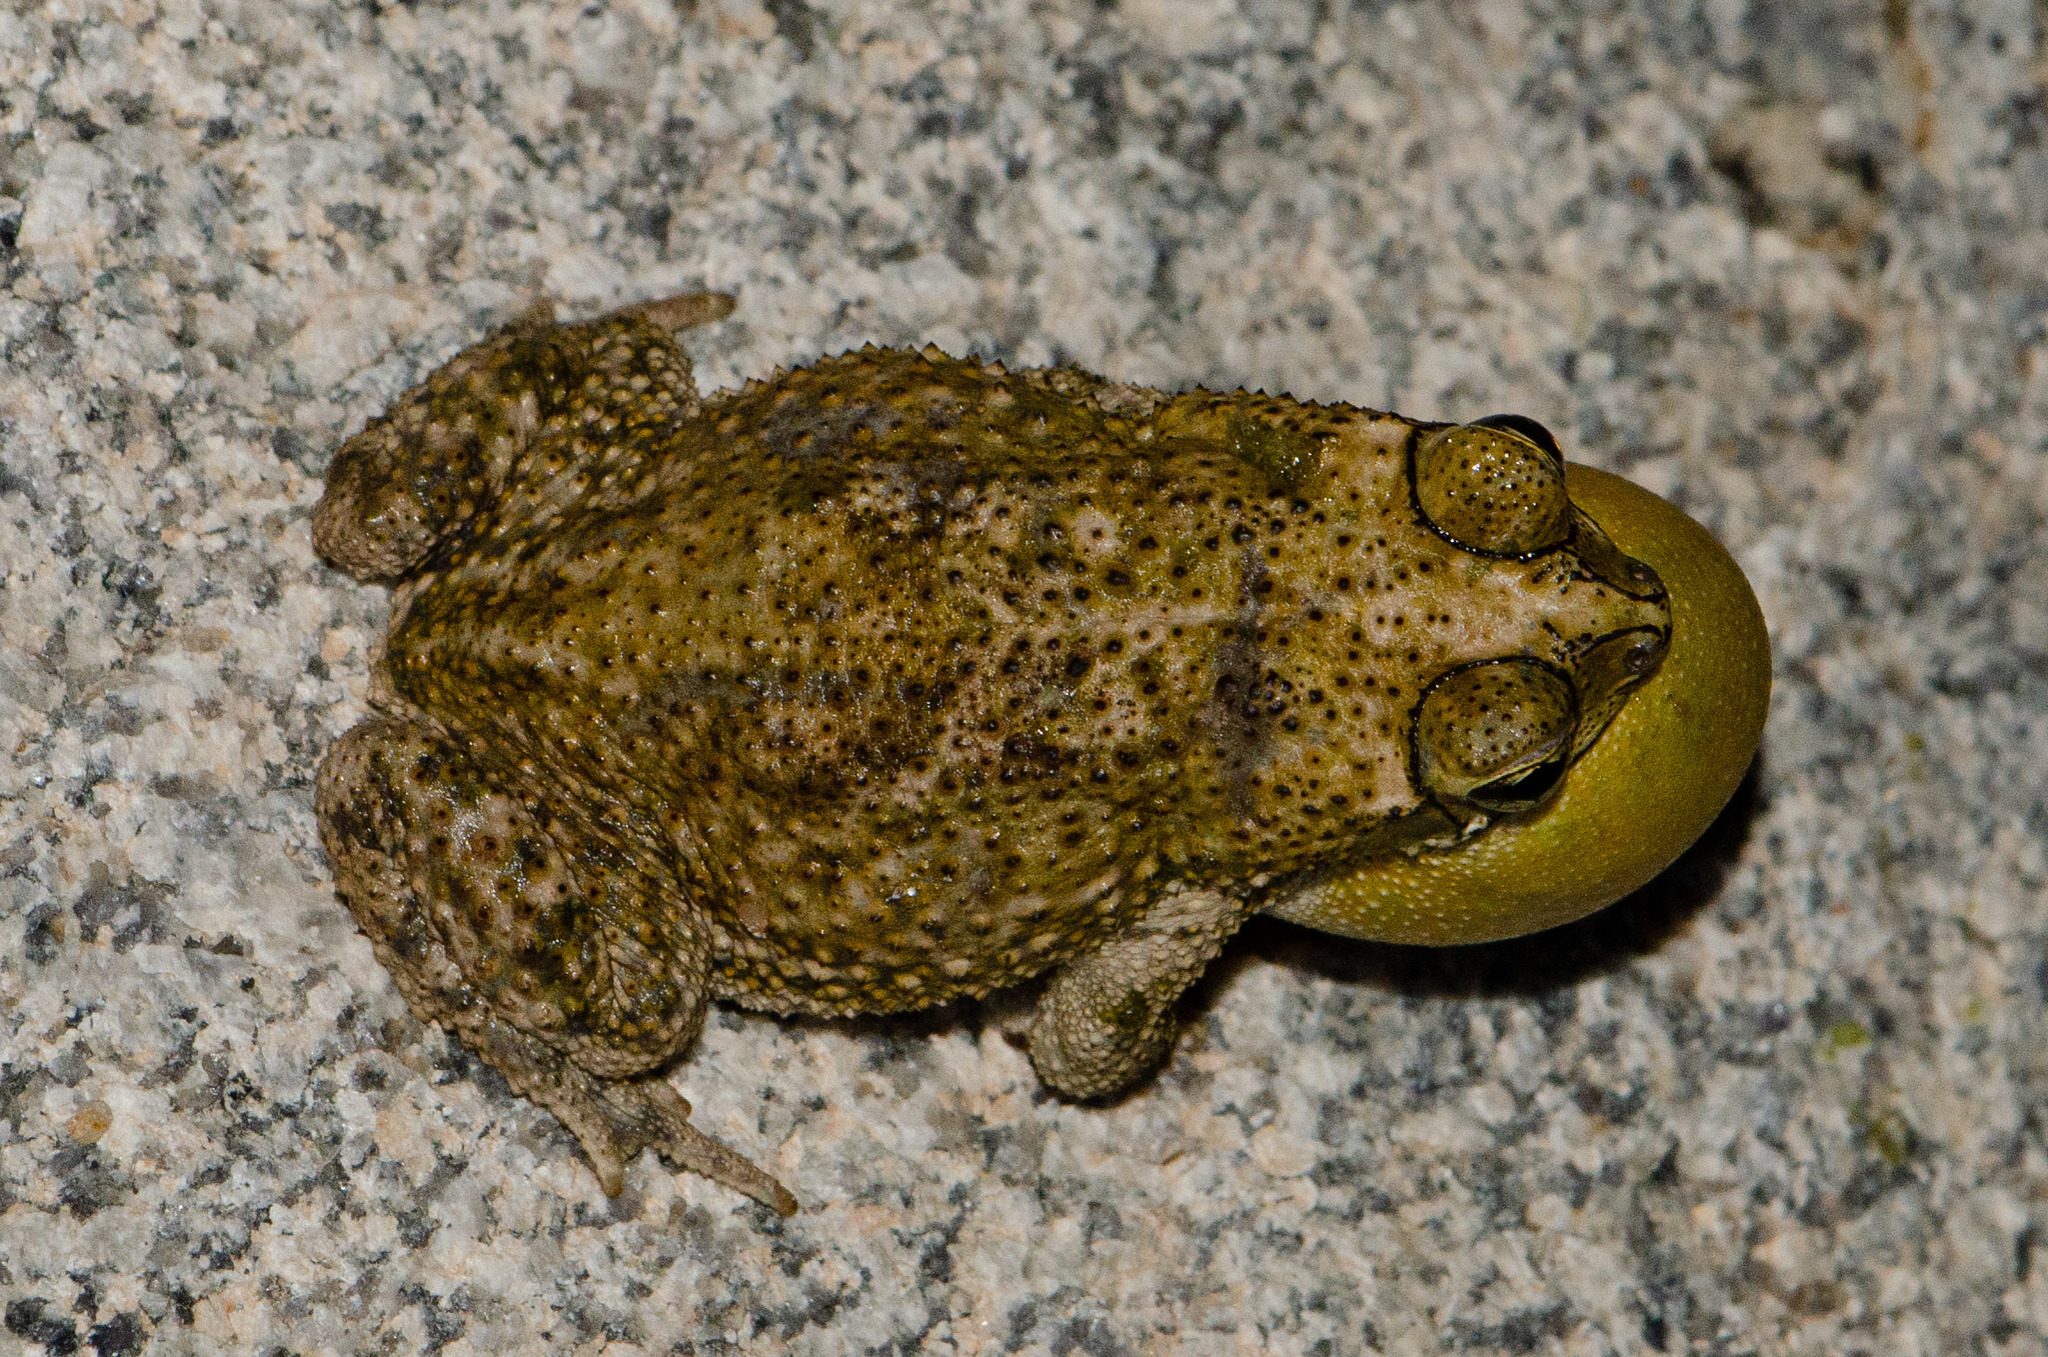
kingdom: Animalia
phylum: Chordata
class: Amphibia
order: Anura
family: Bufonidae
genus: Rhinella
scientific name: Rhinella granulosa
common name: Common lesser toad
